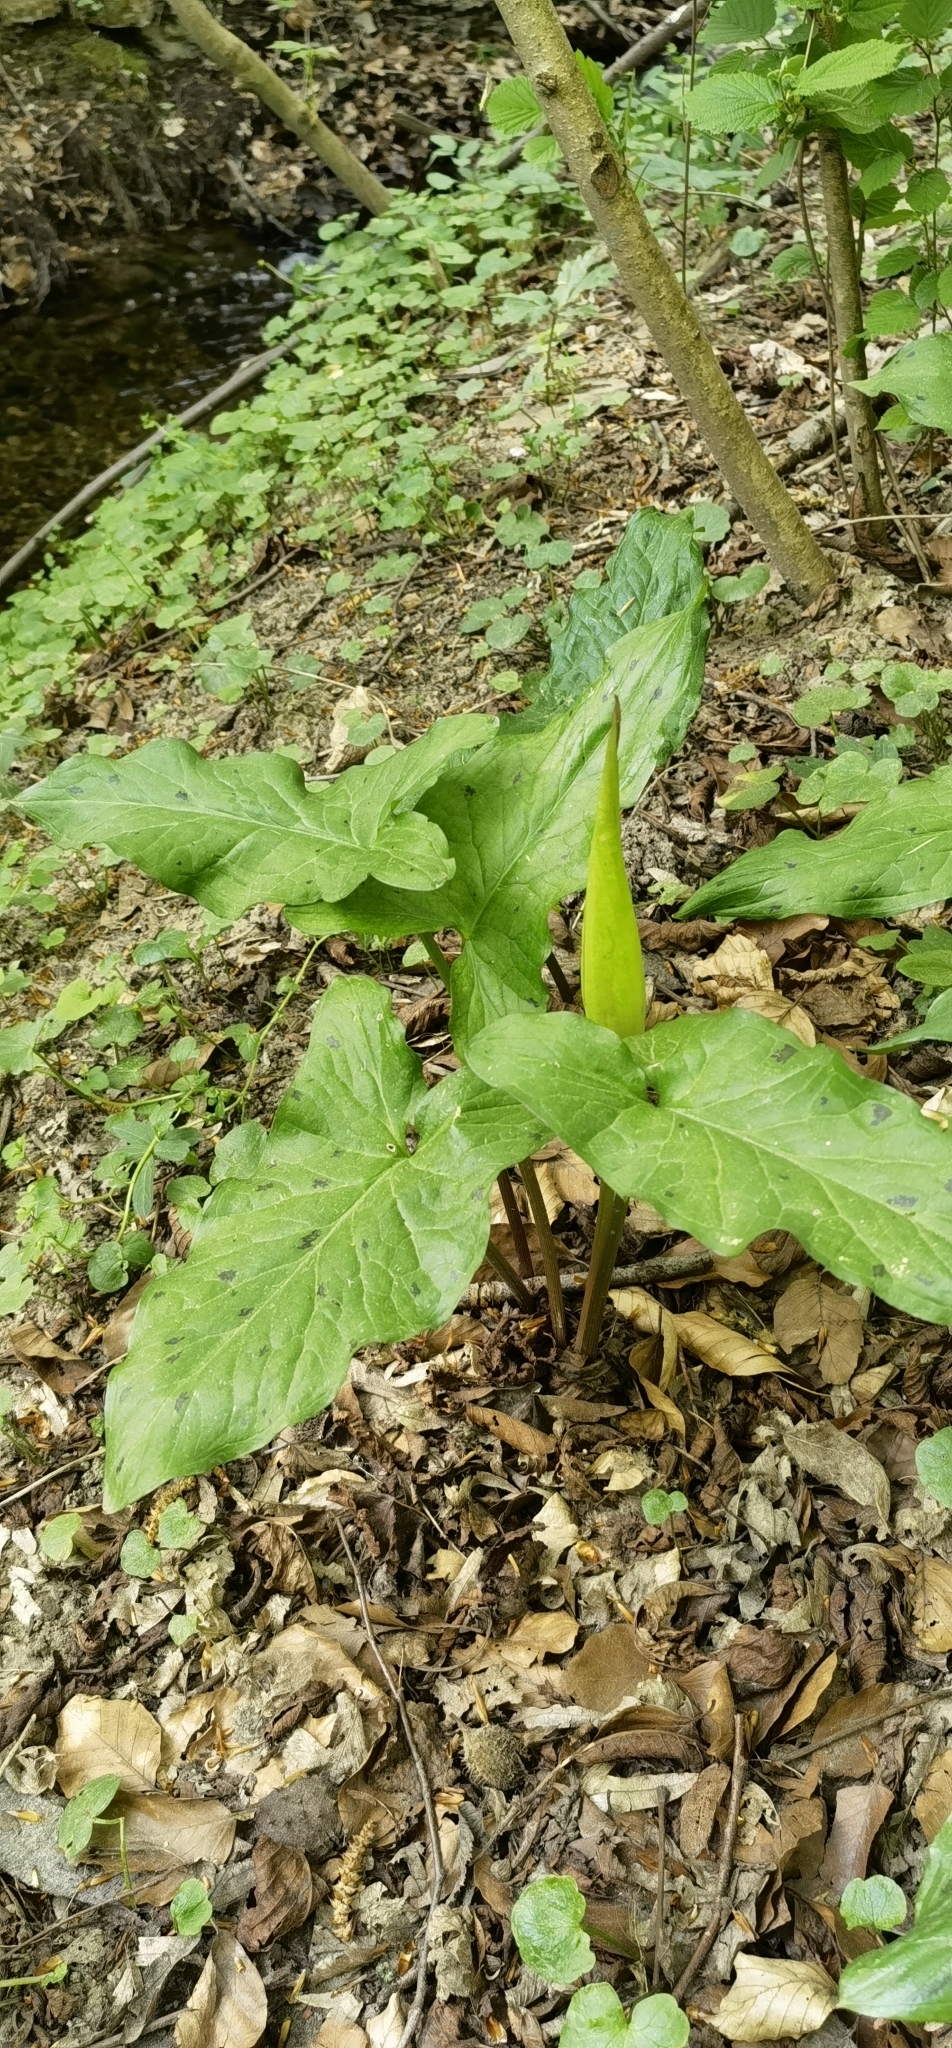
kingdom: Plantae
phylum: Tracheophyta
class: Liliopsida
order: Alismatales
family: Araceae
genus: Arum
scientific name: Arum maculatum
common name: Lords-and-ladies
